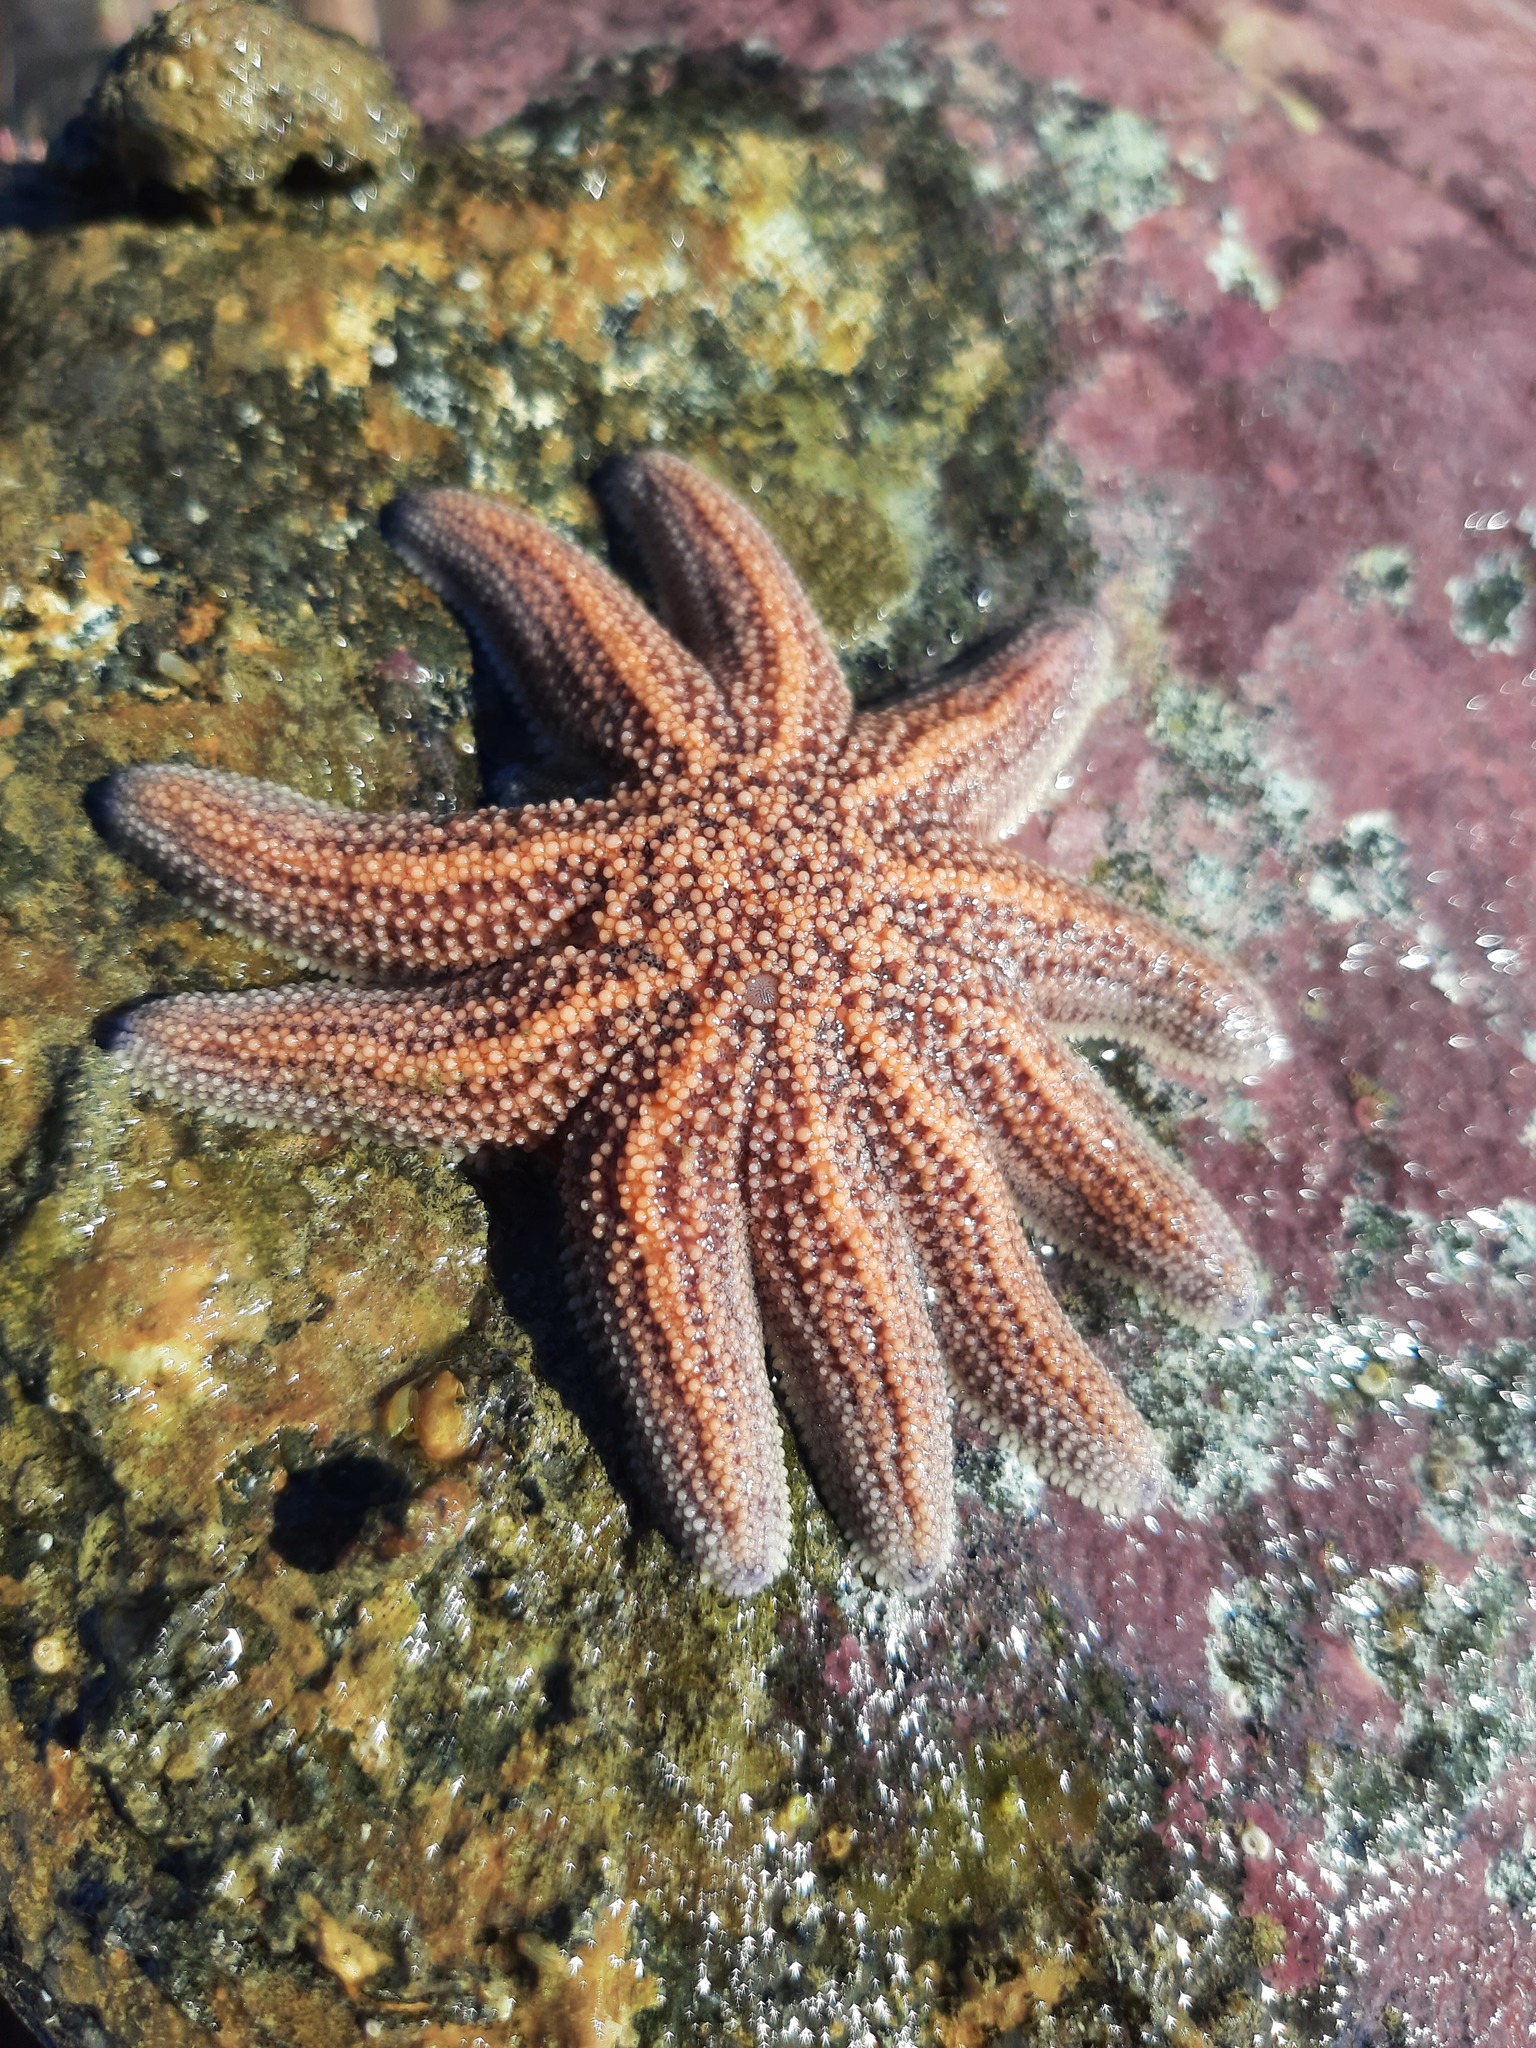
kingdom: Animalia
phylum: Echinodermata
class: Asteroidea
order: Forcipulatida
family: Stichasteridae
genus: Stichaster
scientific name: Stichaster australis
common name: Reef starfish
